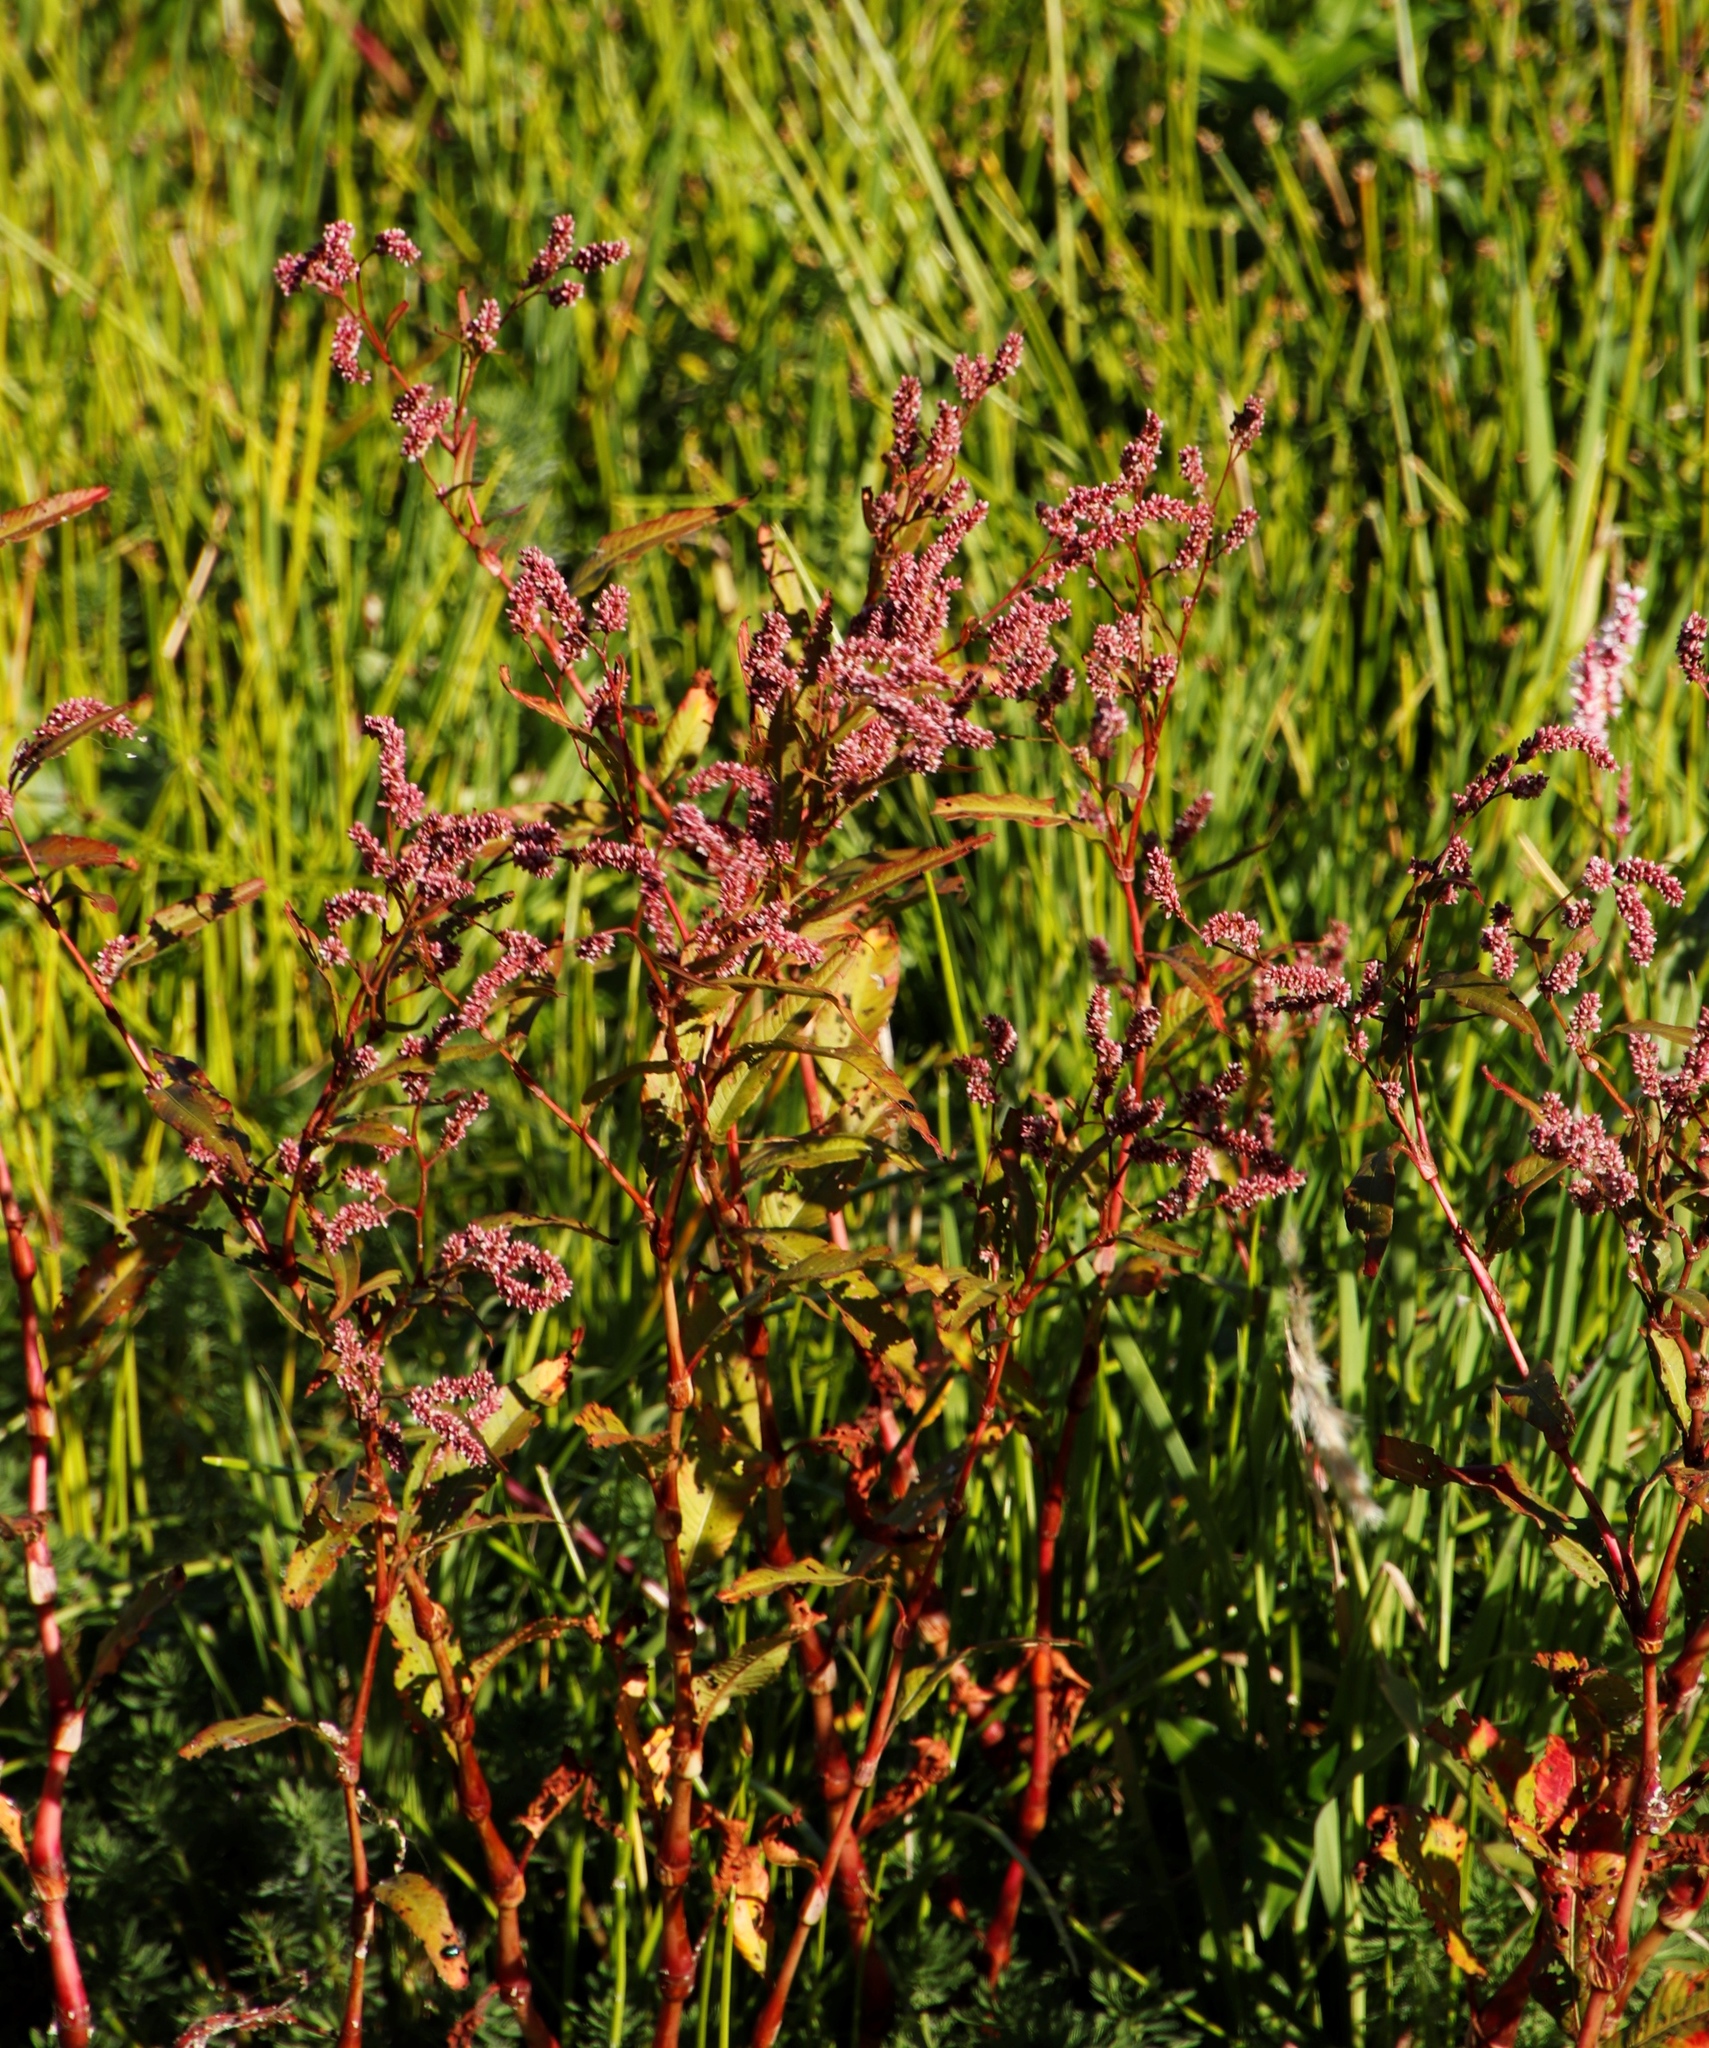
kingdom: Plantae
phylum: Tracheophyta
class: Magnoliopsida
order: Caryophyllales
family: Polygonaceae
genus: Persicaria
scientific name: Persicaria lapathifolia
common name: Curlytop knotweed
